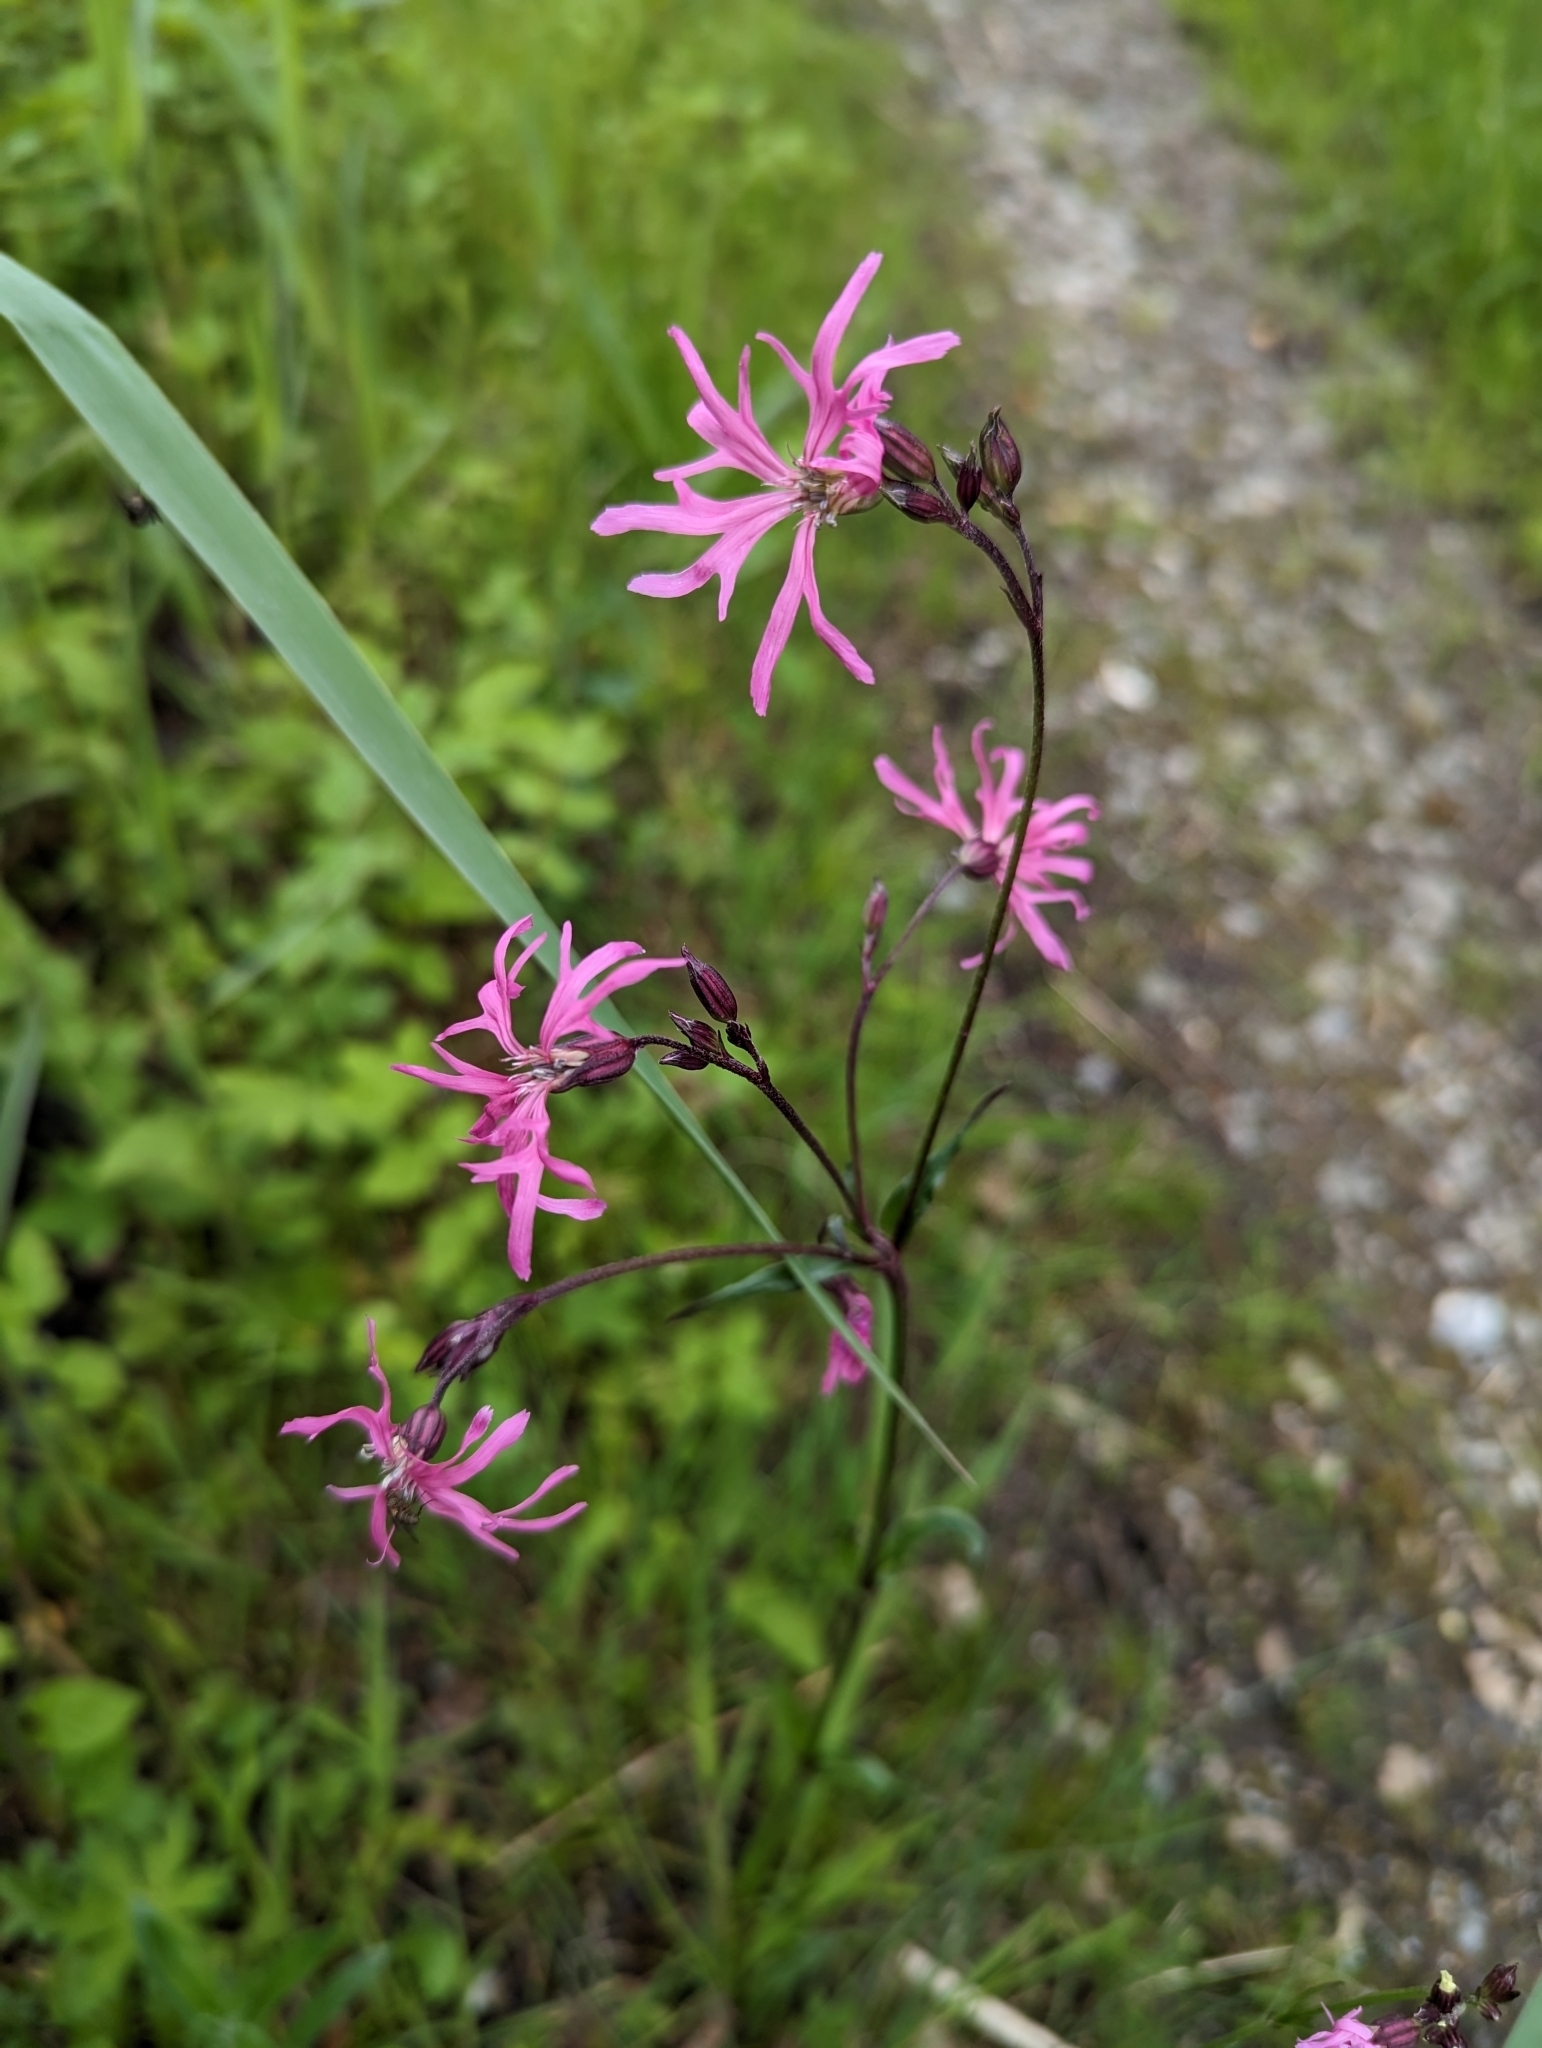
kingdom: Plantae
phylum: Tracheophyta
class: Magnoliopsida
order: Caryophyllales
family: Caryophyllaceae
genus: Silene
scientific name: Silene flos-cuculi
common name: Ragged-robin
